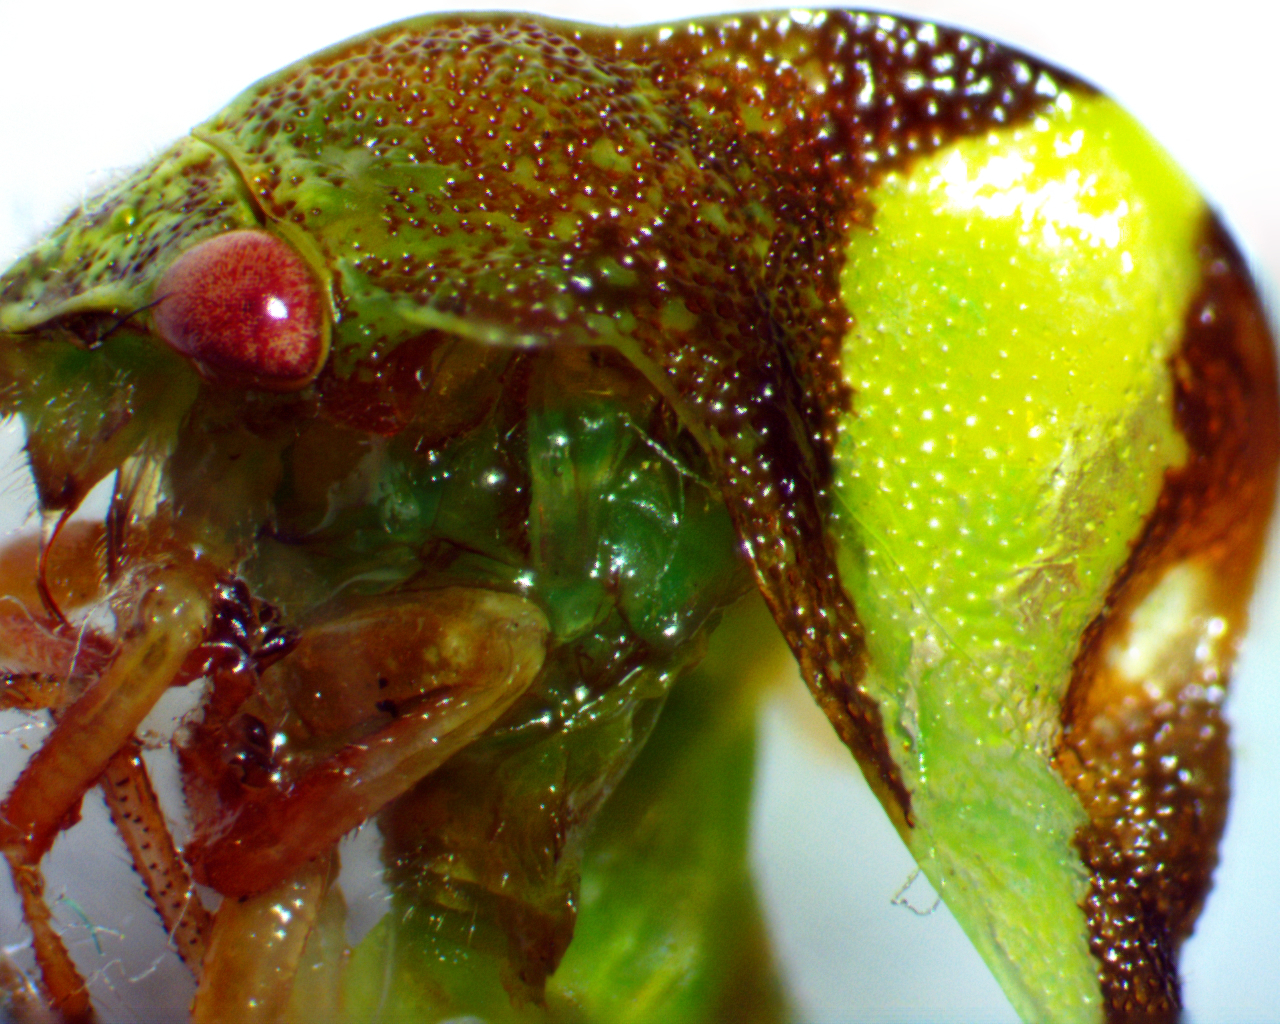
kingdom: Animalia
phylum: Arthropoda
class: Insecta
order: Hemiptera
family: Membracidae
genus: Smilia
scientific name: Smilia fasciata
